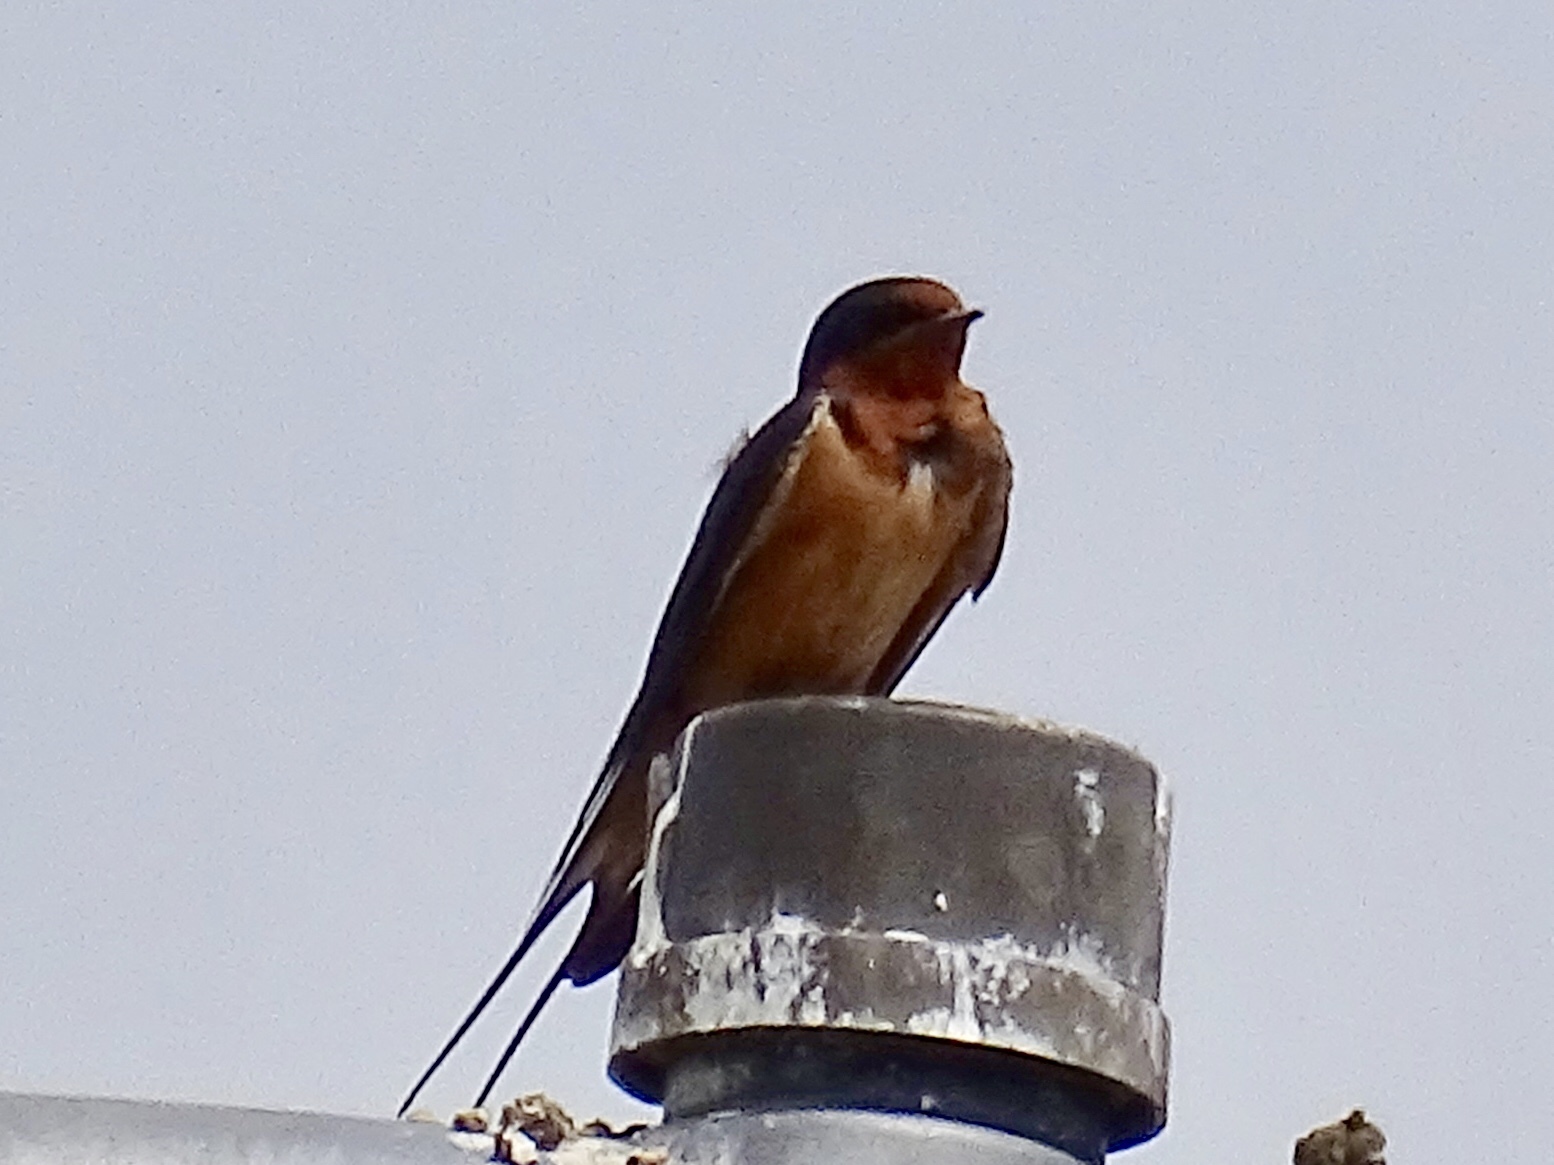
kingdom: Animalia
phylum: Chordata
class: Aves
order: Passeriformes
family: Hirundinidae
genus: Hirundo
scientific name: Hirundo rustica
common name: Barn swallow
